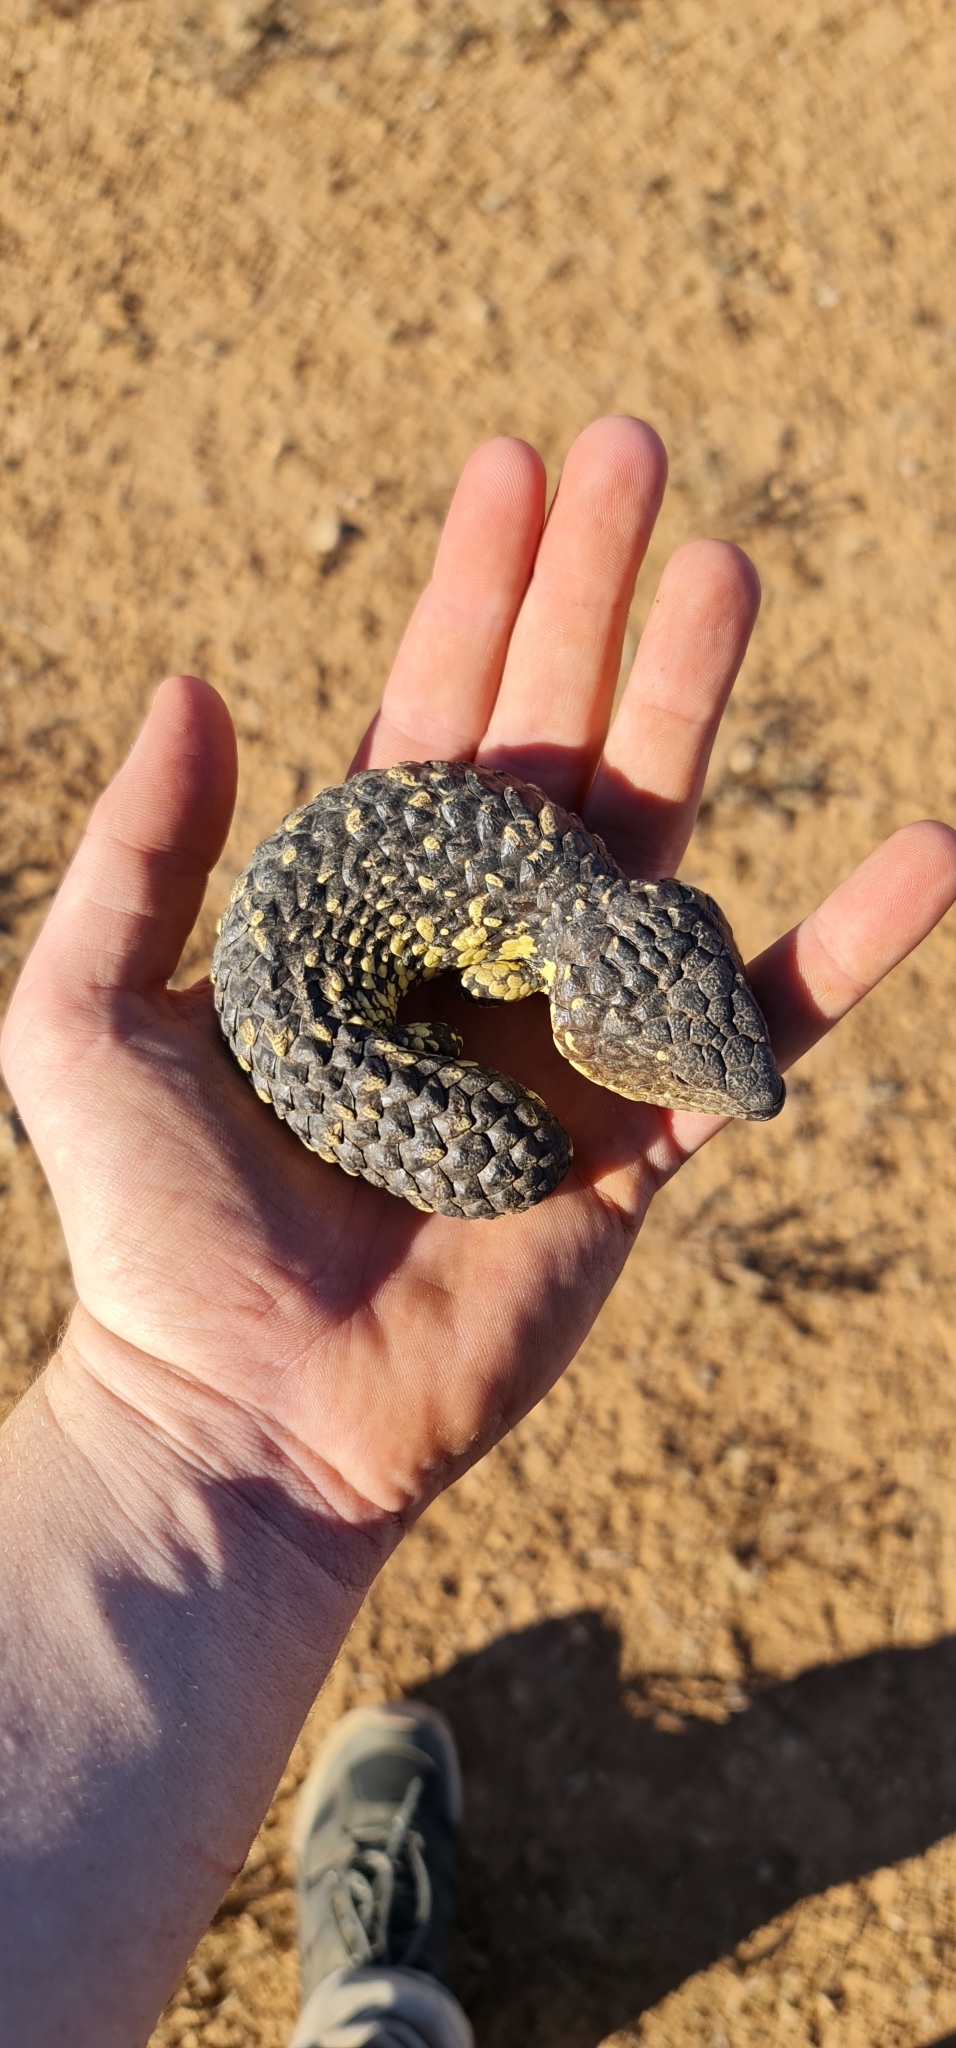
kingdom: Animalia
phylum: Chordata
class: Squamata
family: Scincidae
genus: Tiliqua
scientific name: Tiliqua rugosa
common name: Pinecone lizard
